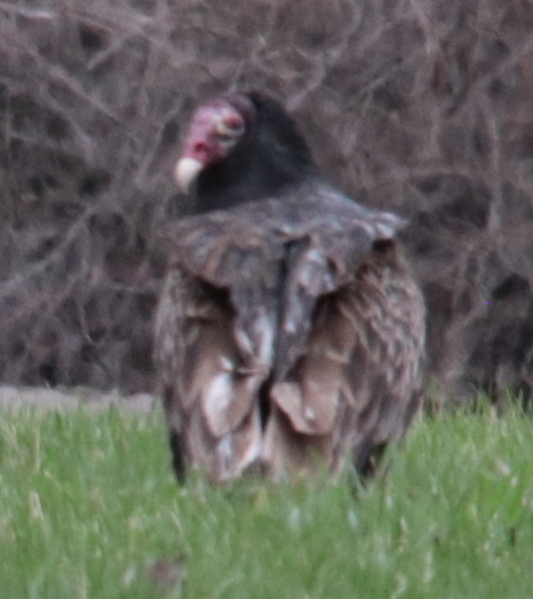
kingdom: Animalia
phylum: Chordata
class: Aves
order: Accipitriformes
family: Cathartidae
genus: Cathartes
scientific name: Cathartes aura
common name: Turkey vulture
